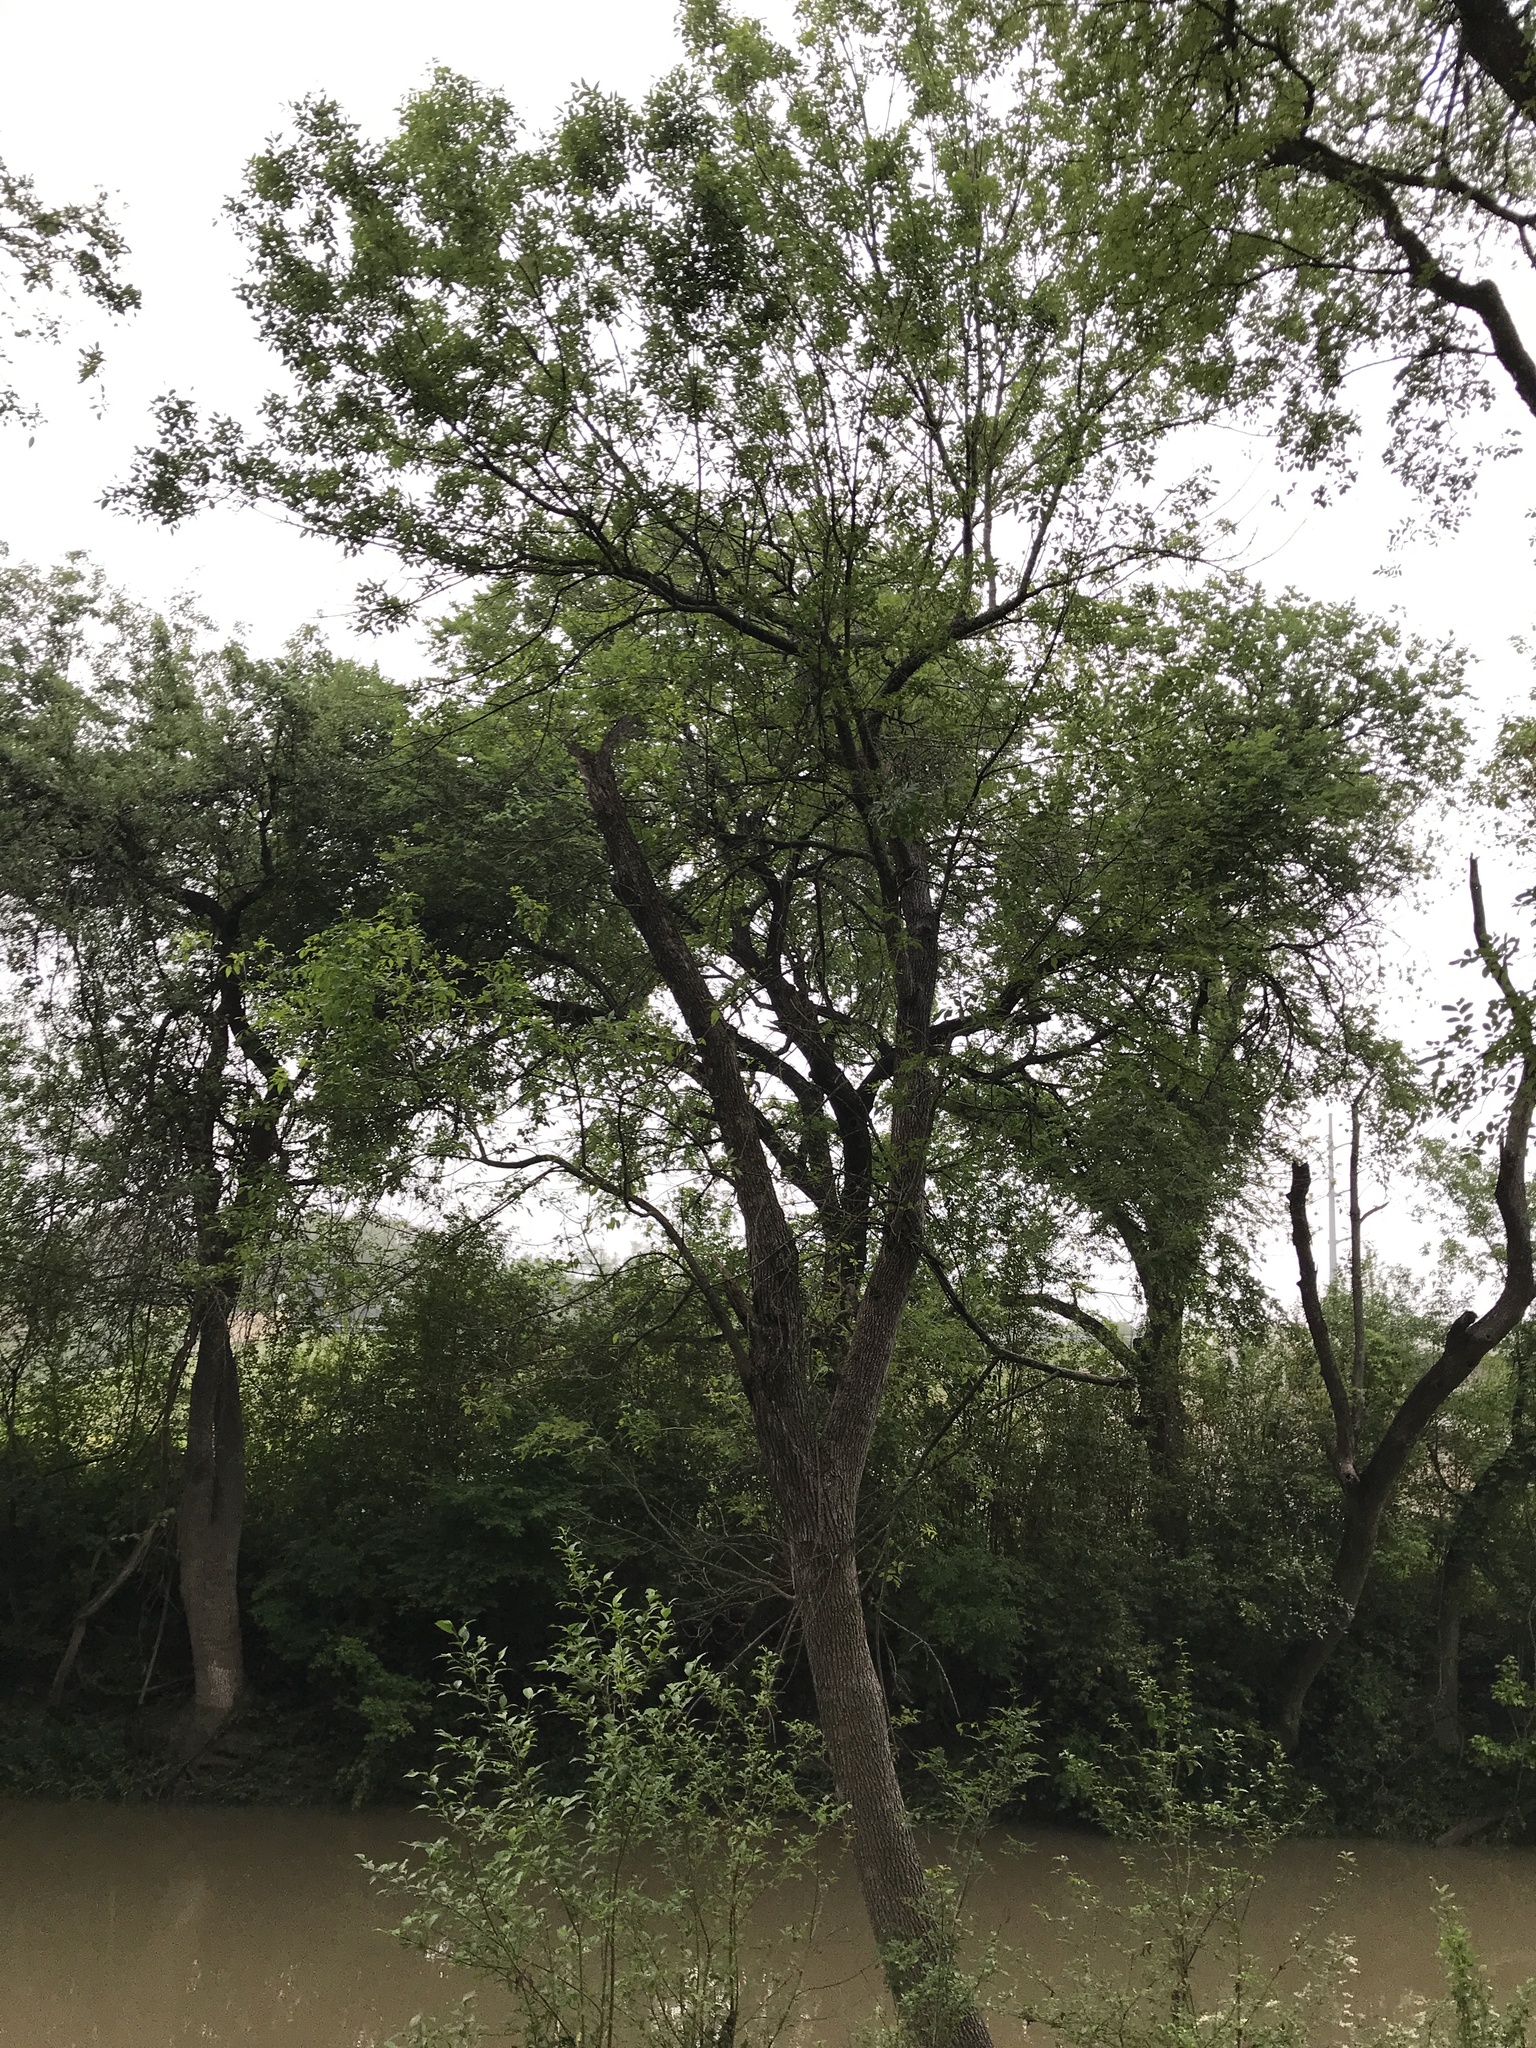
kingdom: Plantae
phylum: Tracheophyta
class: Magnoliopsida
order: Lamiales
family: Oleaceae
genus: Fraxinus
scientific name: Fraxinus pennsylvanica
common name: Green ash
